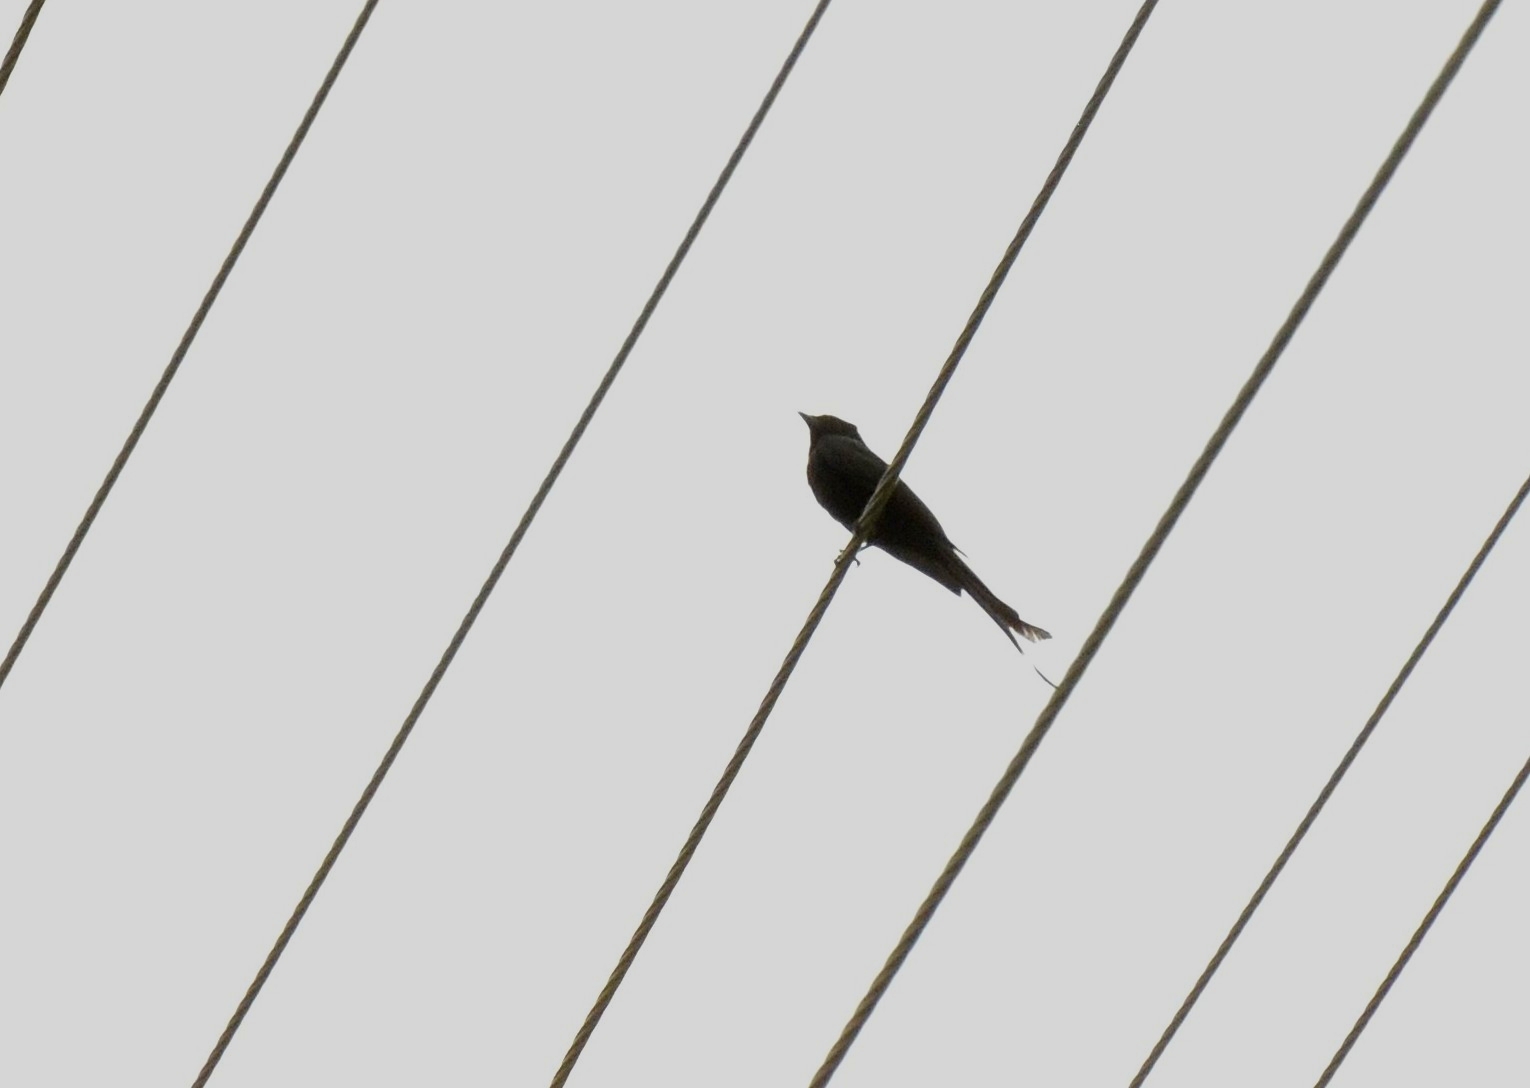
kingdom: Animalia
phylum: Chordata
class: Aves
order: Passeriformes
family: Dicruridae
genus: Dicrurus
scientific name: Dicrurus macrocercus
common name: Black drongo
